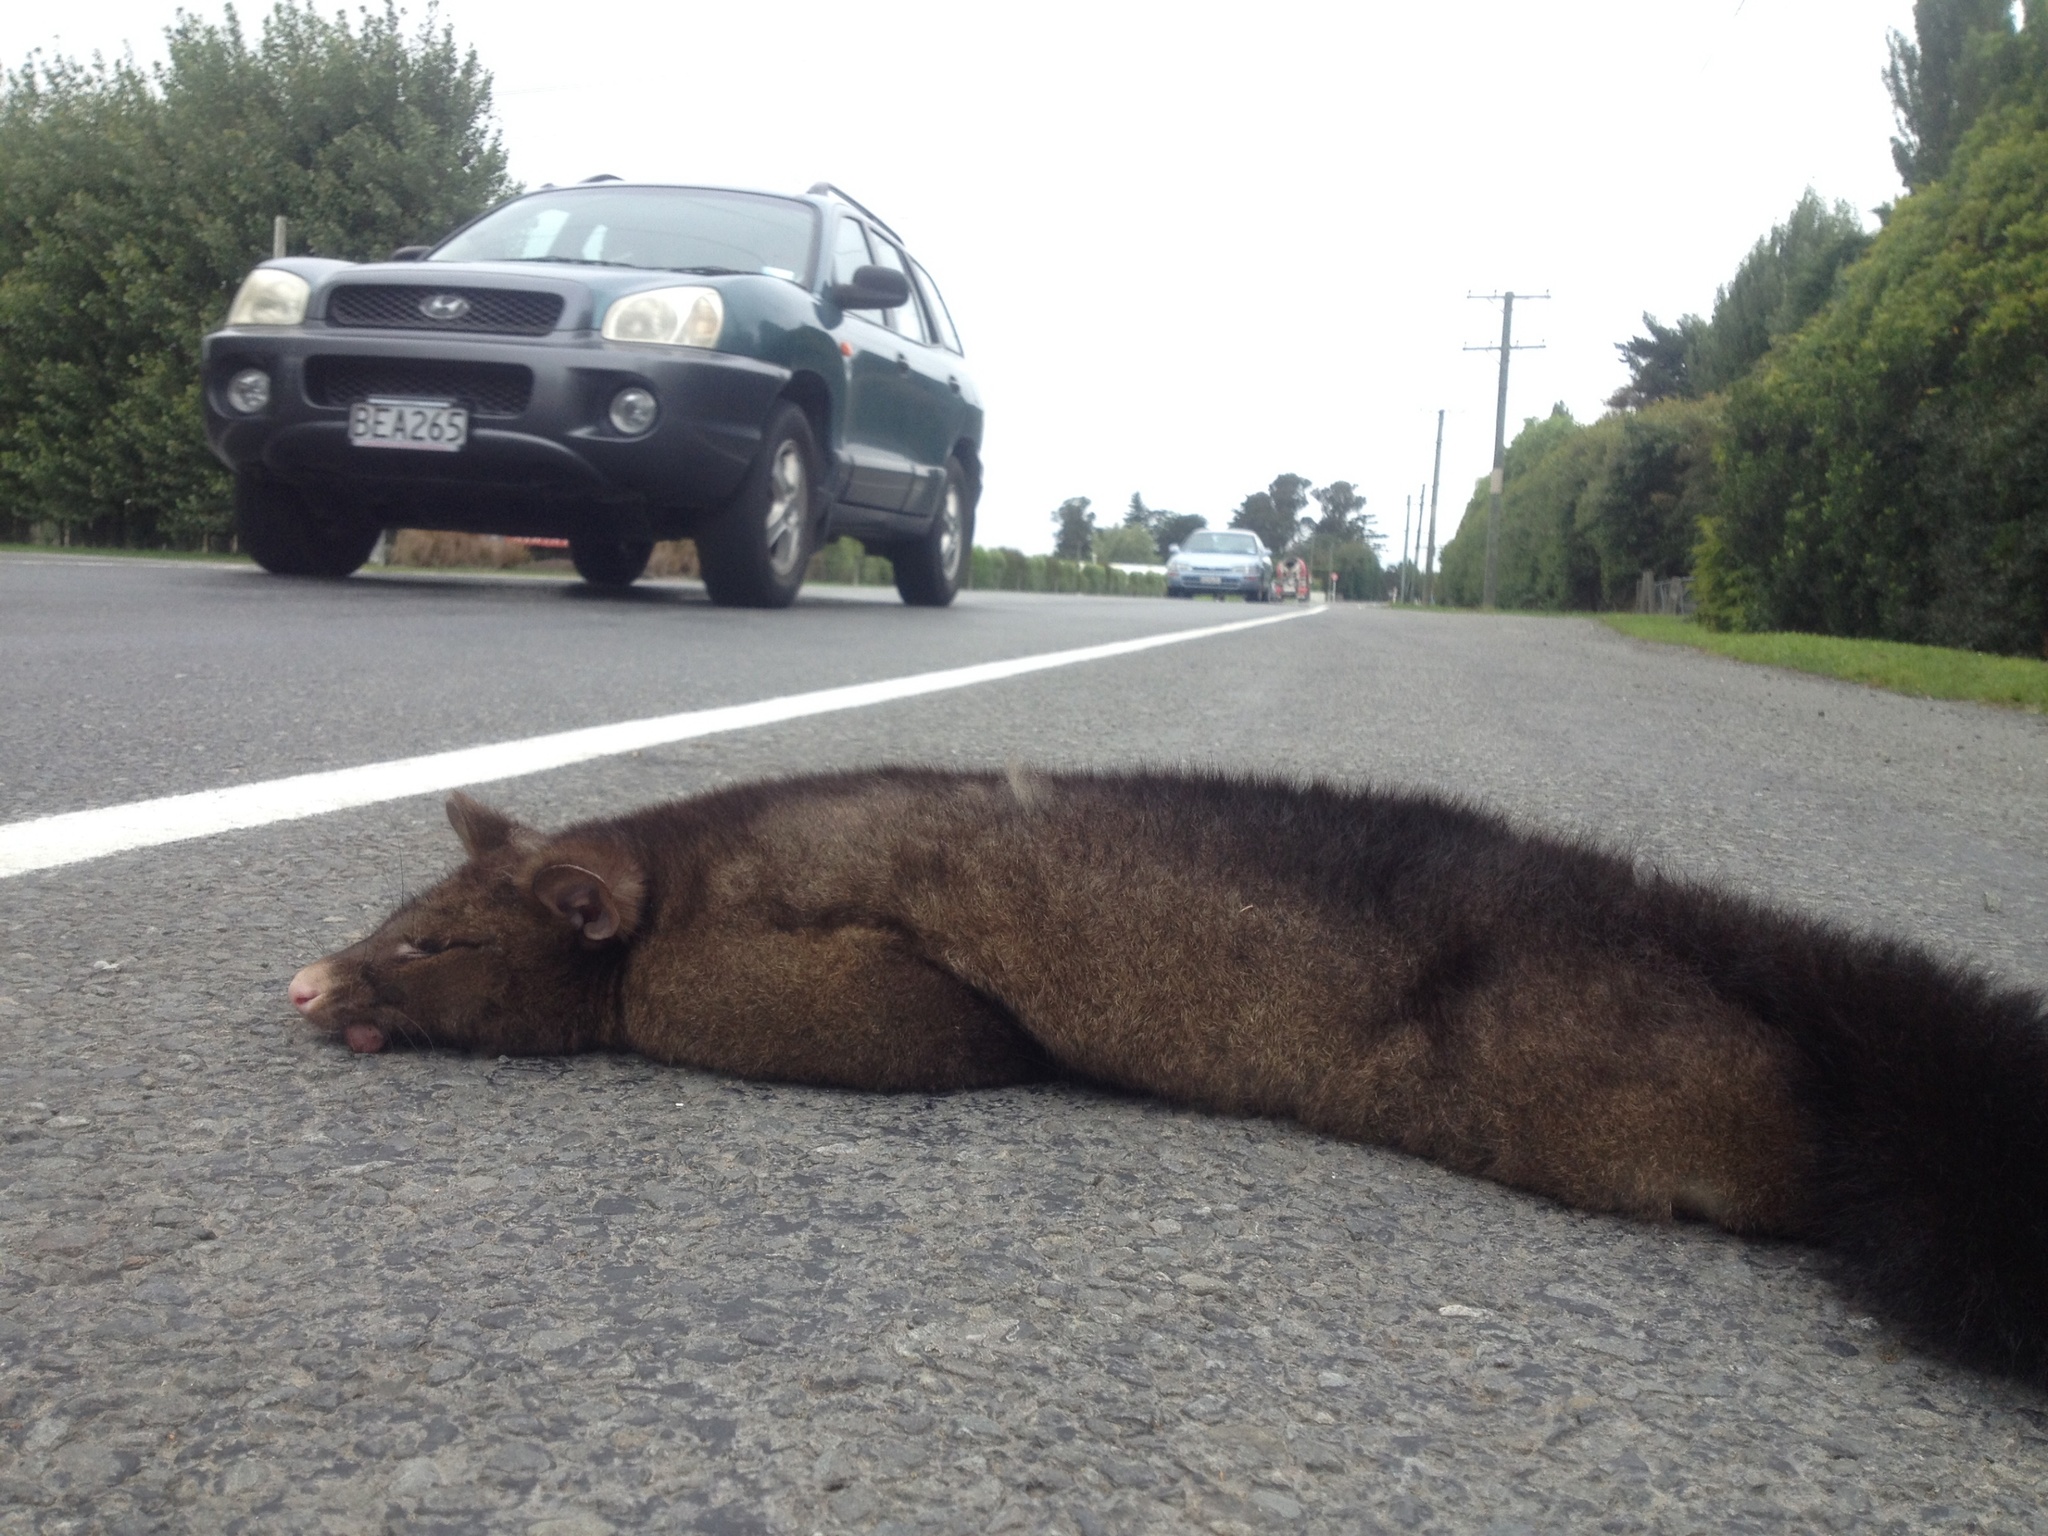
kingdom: Animalia
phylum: Chordata
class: Mammalia
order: Diprotodontia
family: Phalangeridae
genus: Trichosurus
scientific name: Trichosurus vulpecula
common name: Common brushtail
